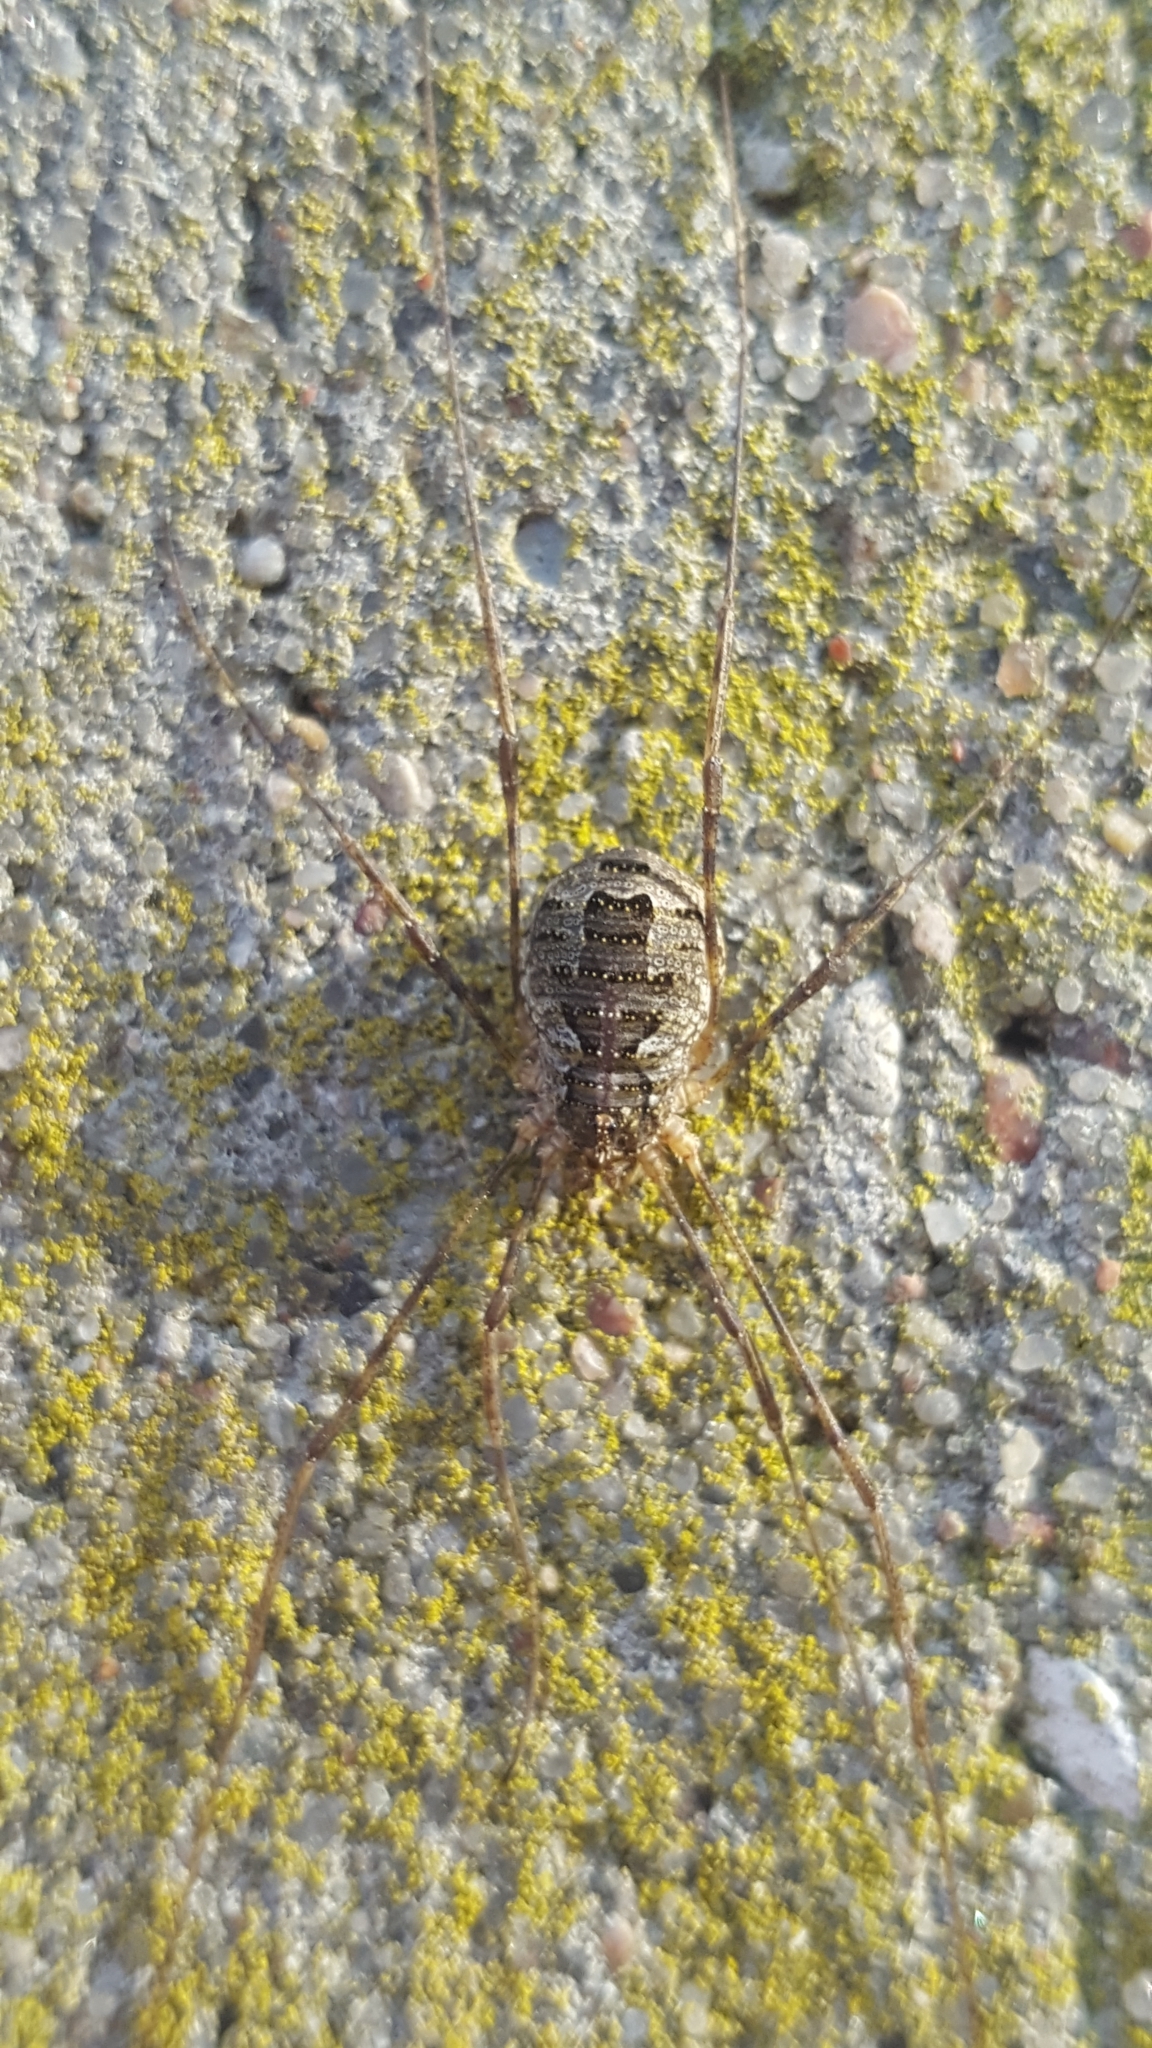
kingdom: Animalia
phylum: Arthropoda
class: Arachnida
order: Opiliones
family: Phalangiidae
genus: Lacinius
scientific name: Lacinius dentiger
